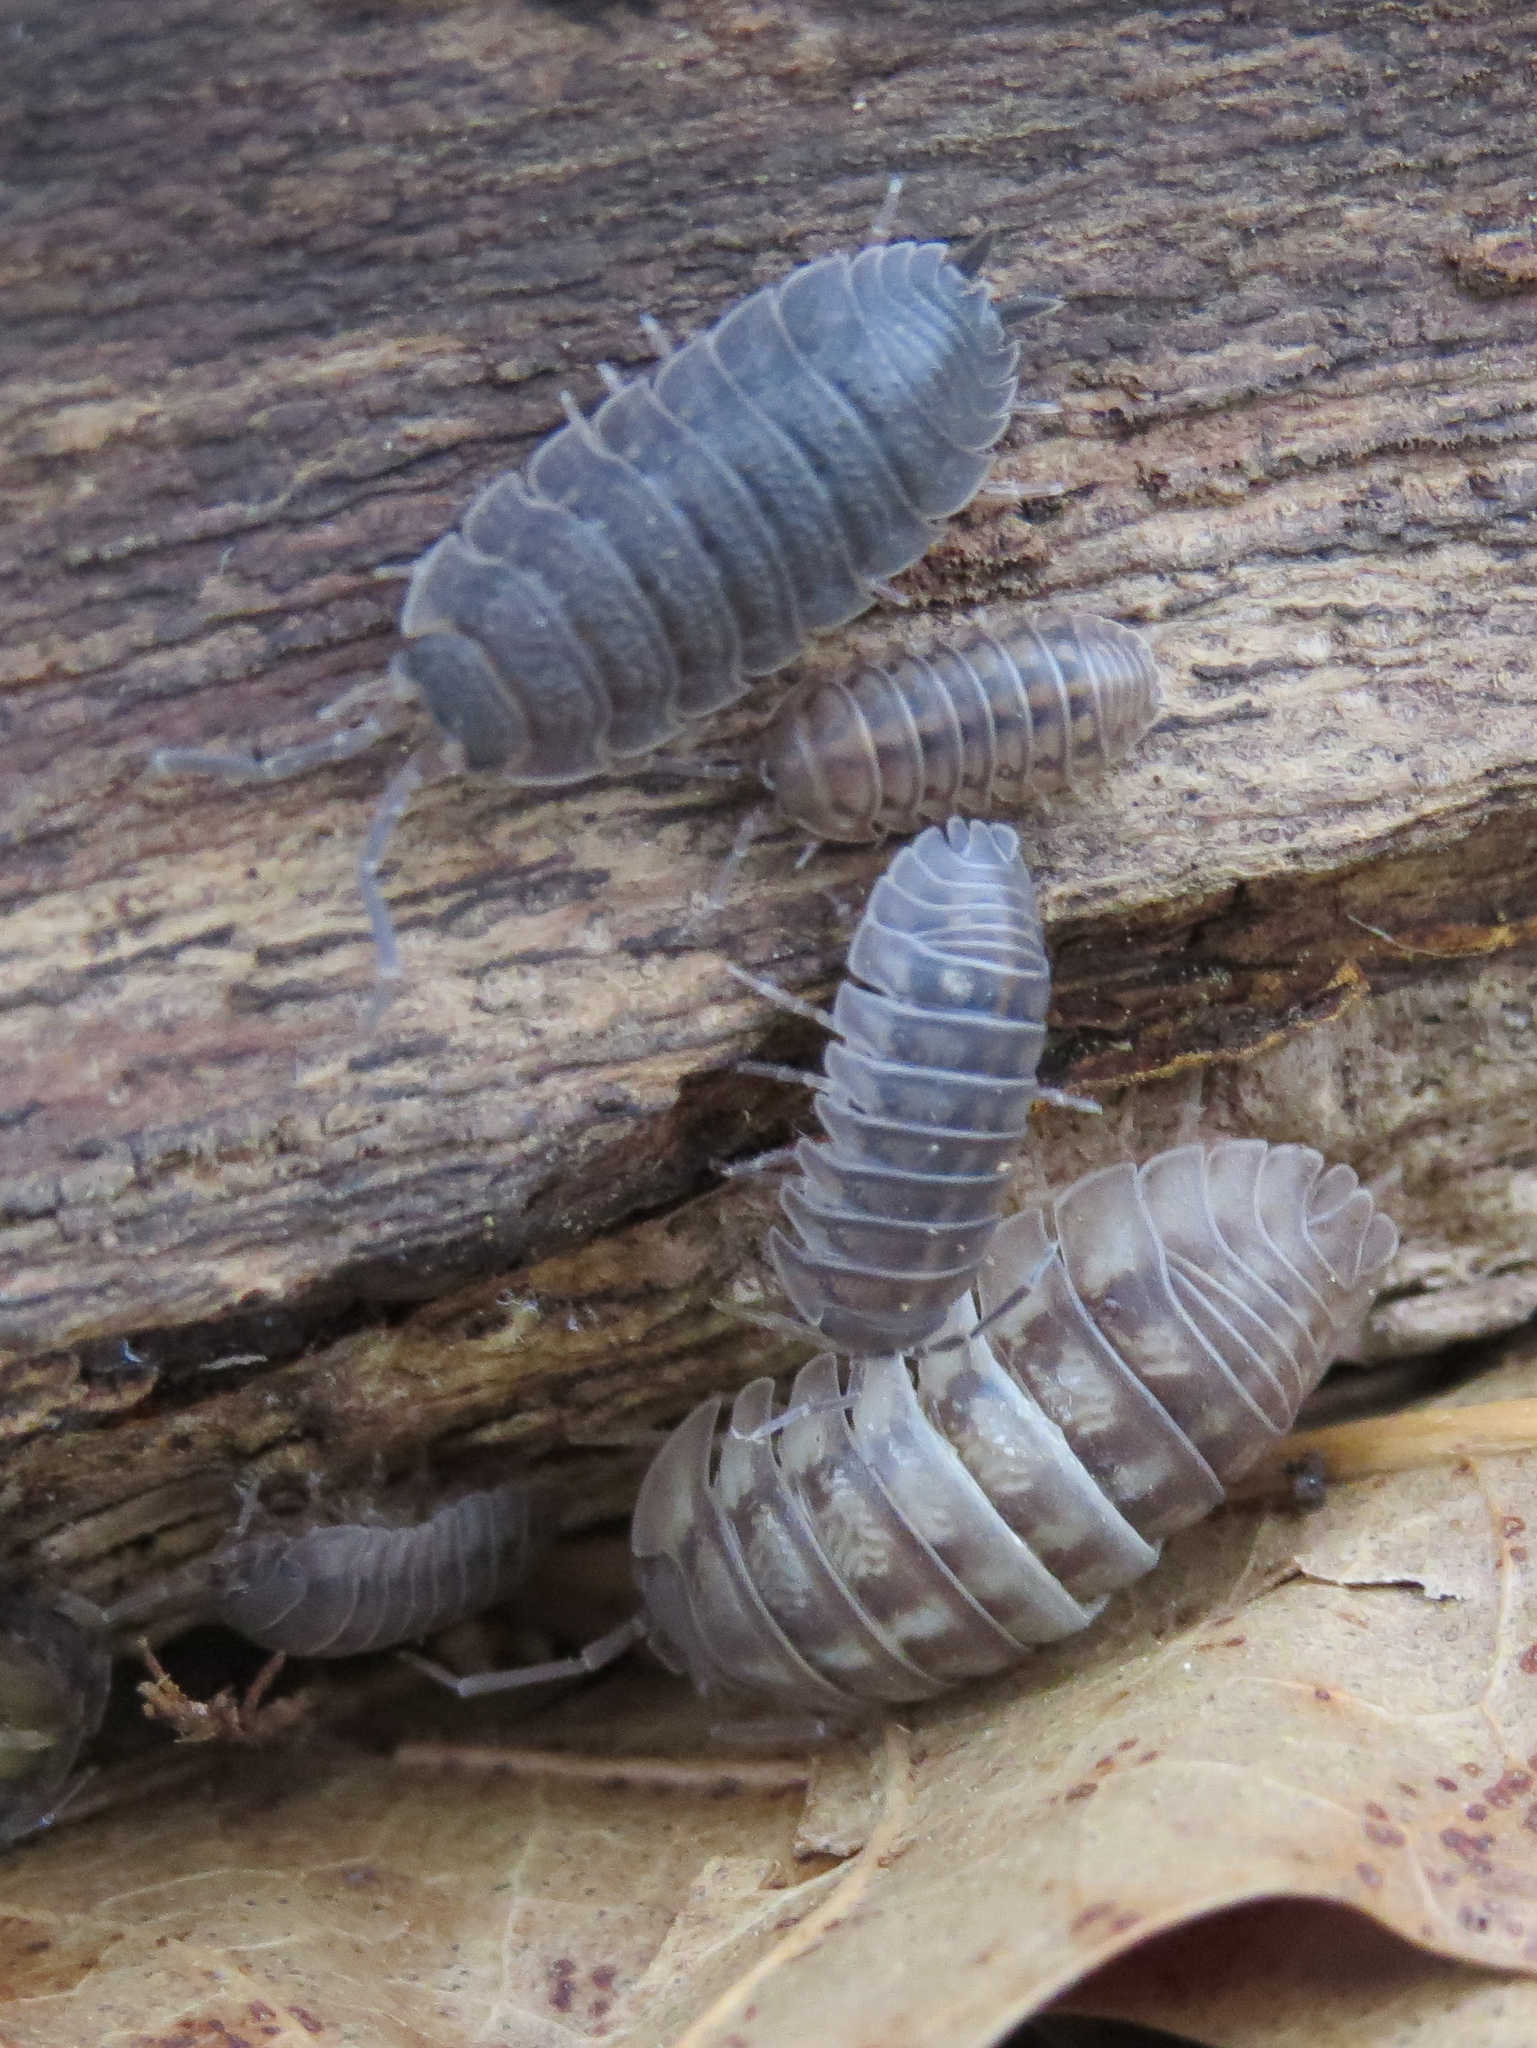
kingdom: Animalia
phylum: Arthropoda
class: Malacostraca
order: Isopoda
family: Armadillidiidae
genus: Armadillidium
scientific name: Armadillidium nasatum
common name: Isopod
